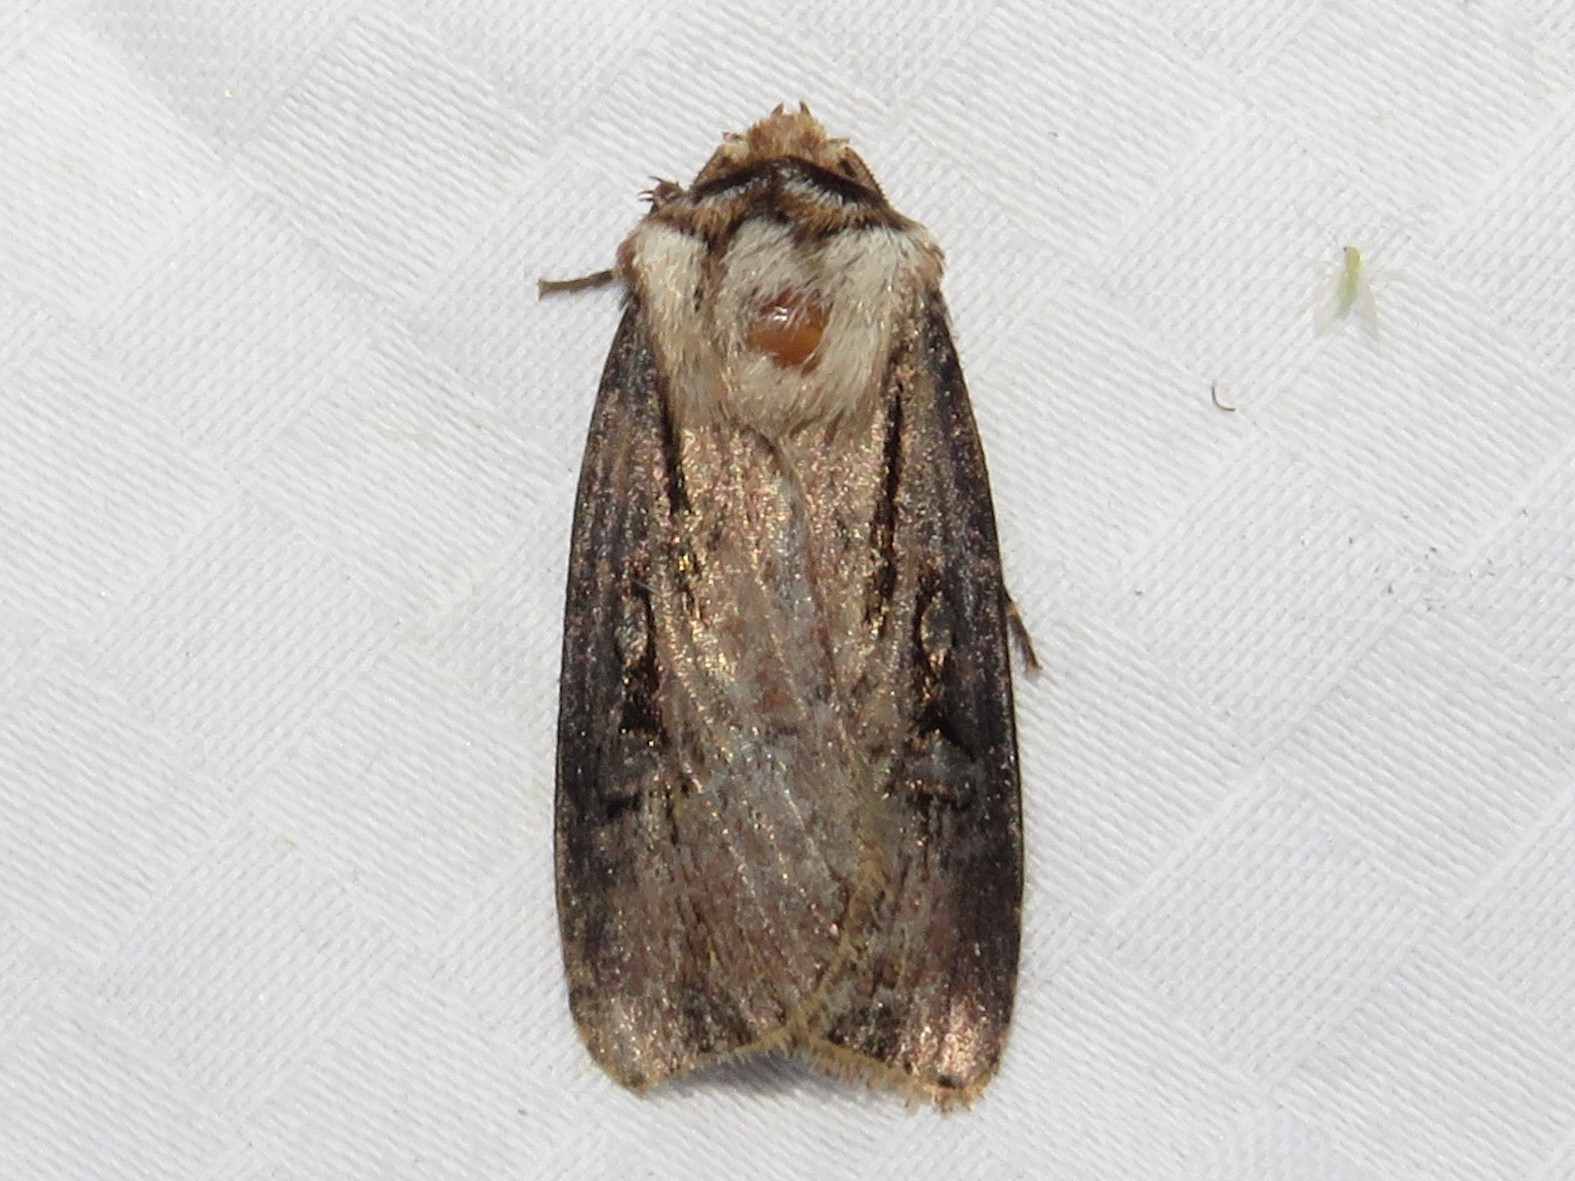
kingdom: Animalia
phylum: Arthropoda
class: Insecta
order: Lepidoptera
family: Noctuidae
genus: Agrotis
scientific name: Agrotis venerabilis
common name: Venerable dart
